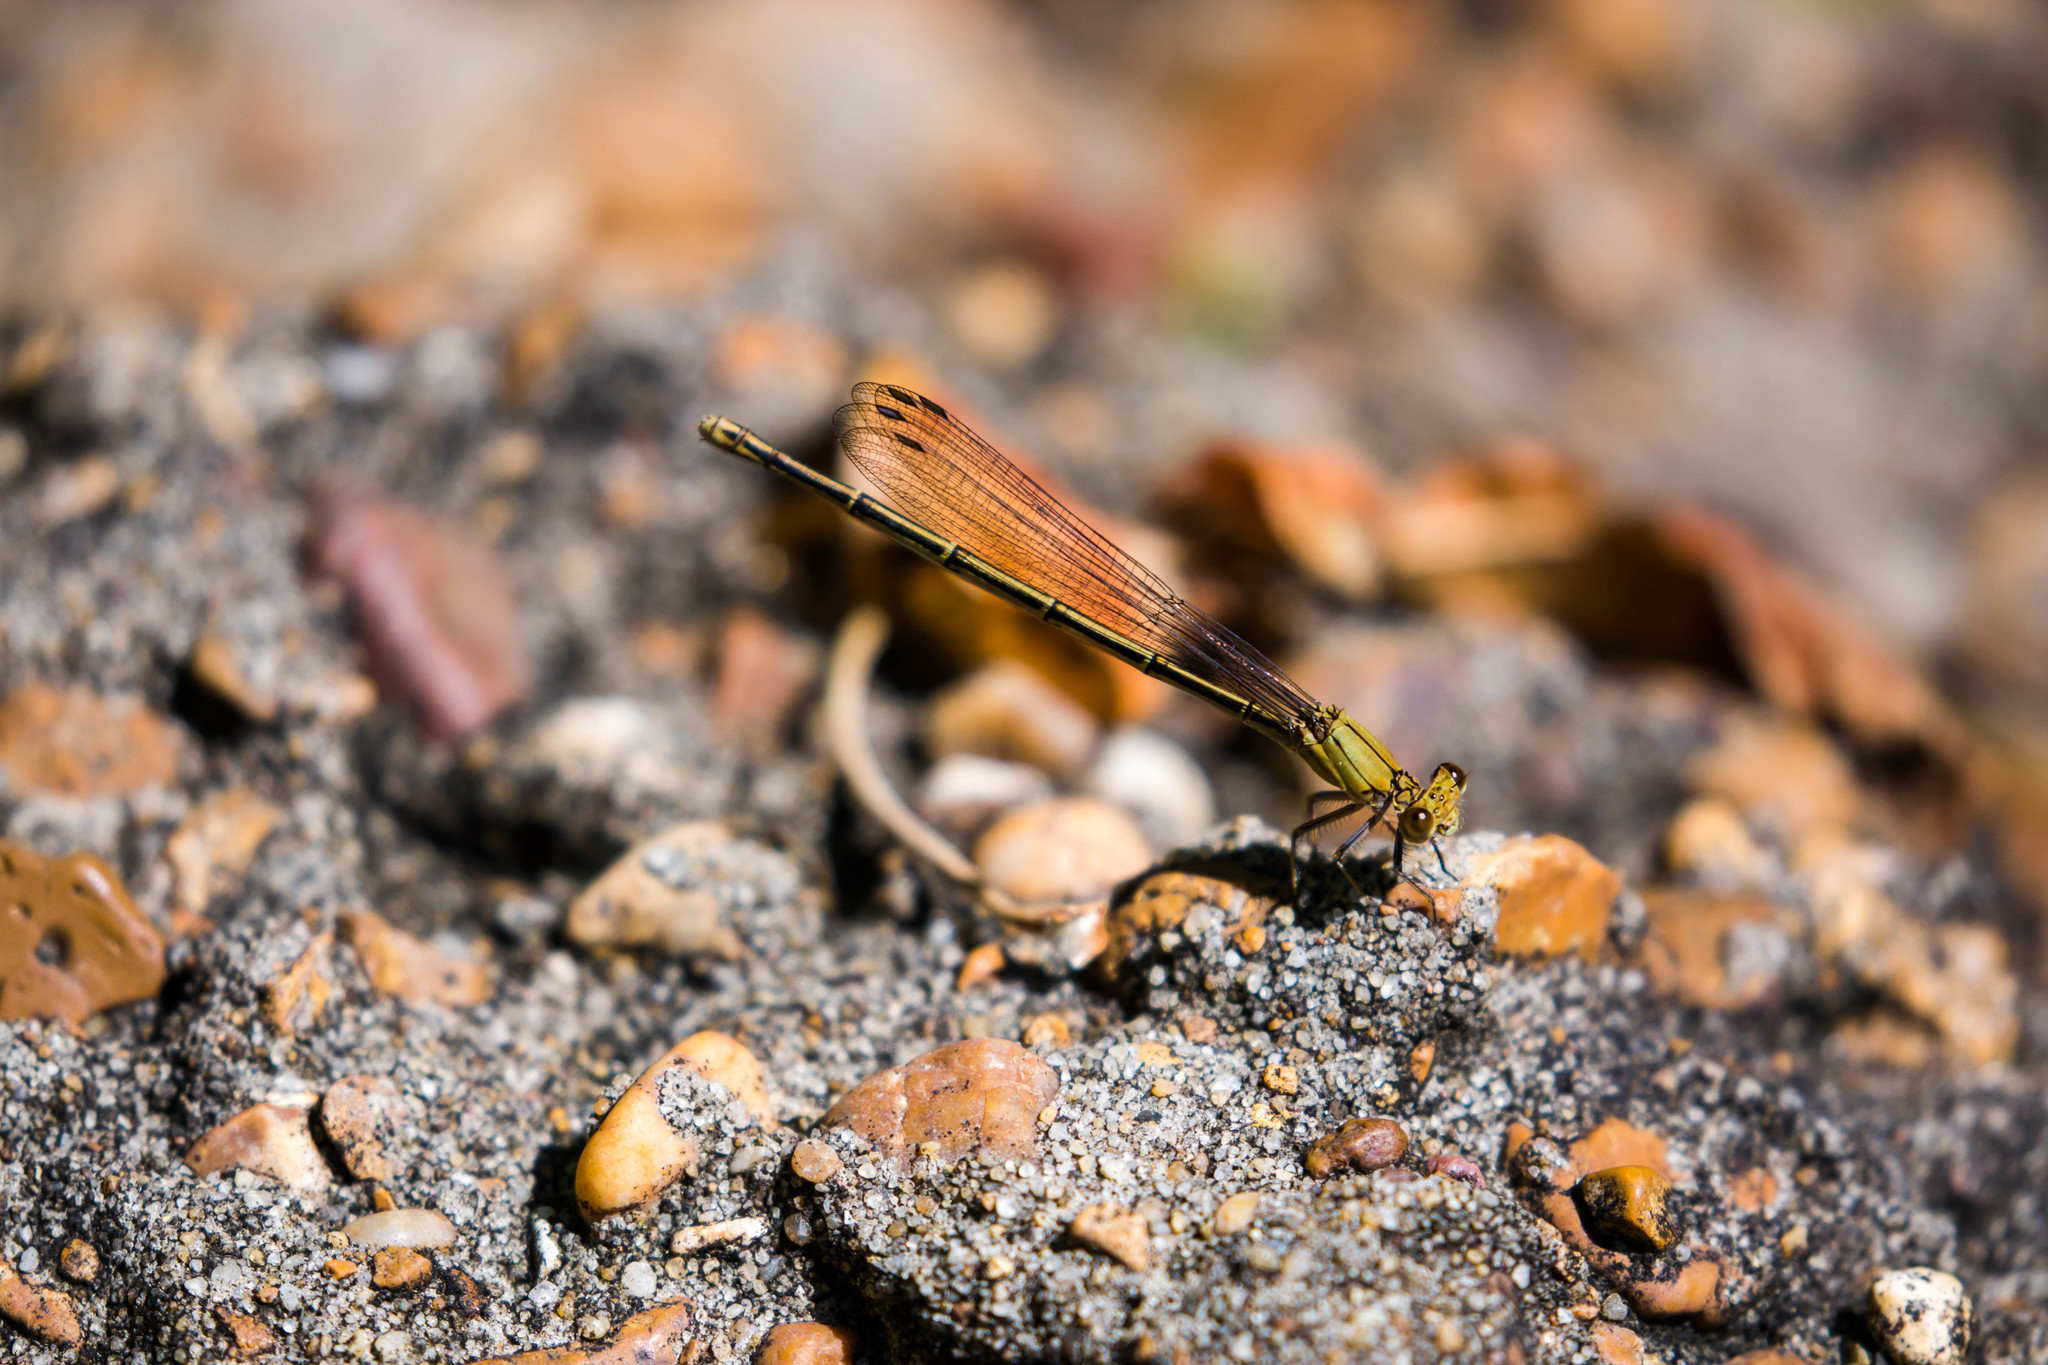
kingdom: Animalia
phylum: Arthropoda
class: Insecta
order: Odonata
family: Coenagrionidae
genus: Argia
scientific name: Argia apicalis
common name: Blue-fronted dancer
